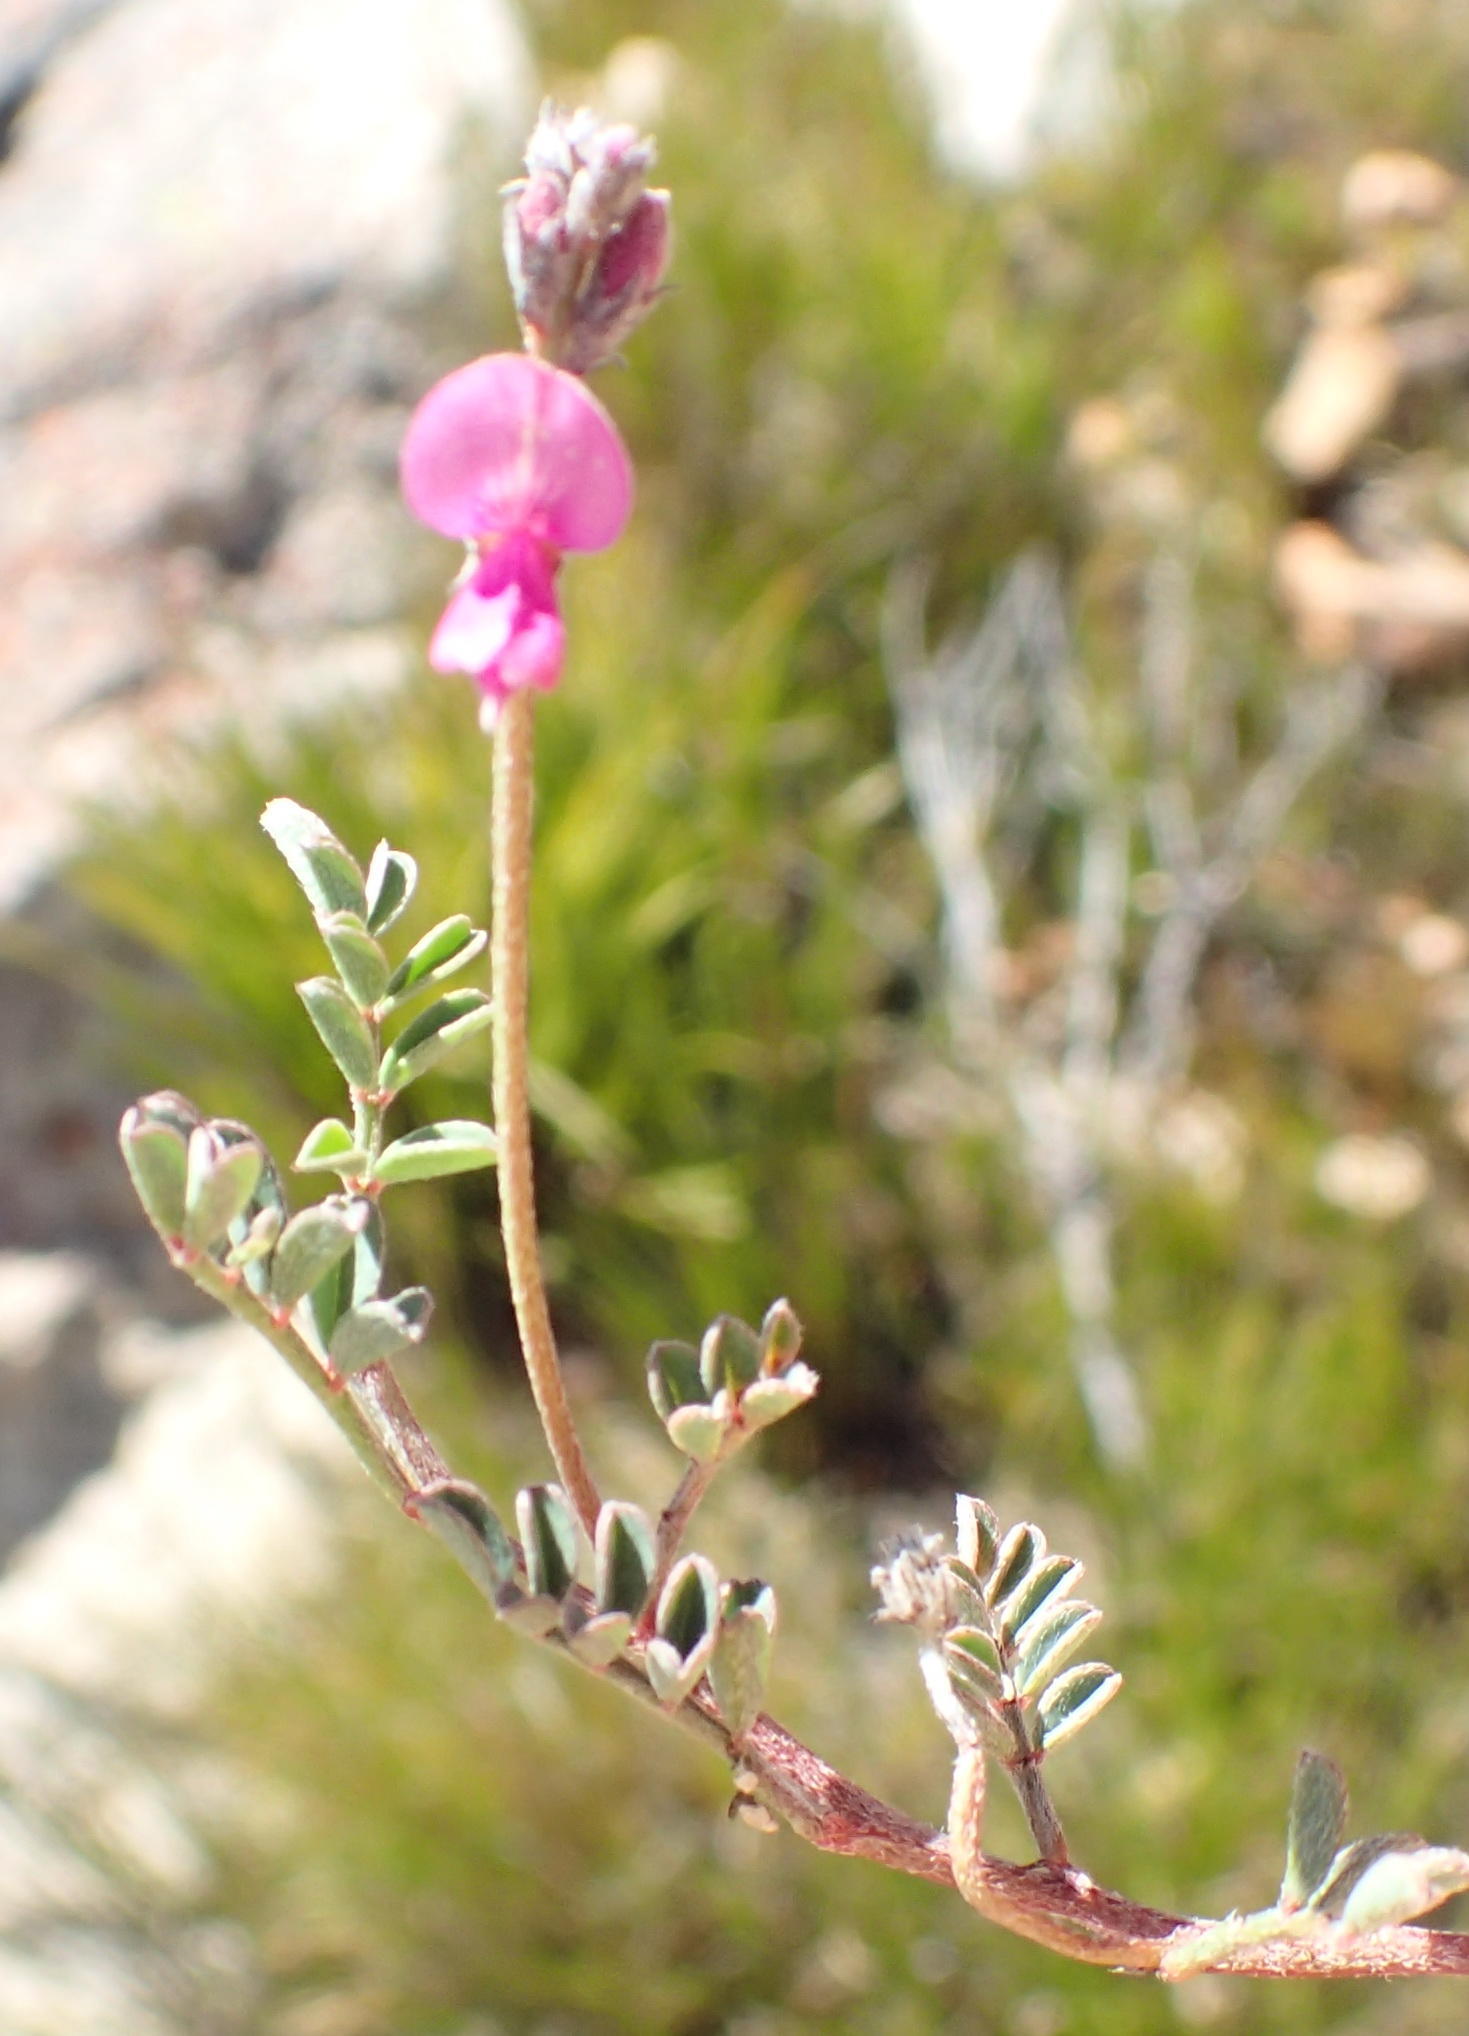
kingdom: Plantae
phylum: Tracheophyta
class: Magnoliopsida
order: Fabales
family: Fabaceae
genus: Indigofera
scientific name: Indigofera declinata
